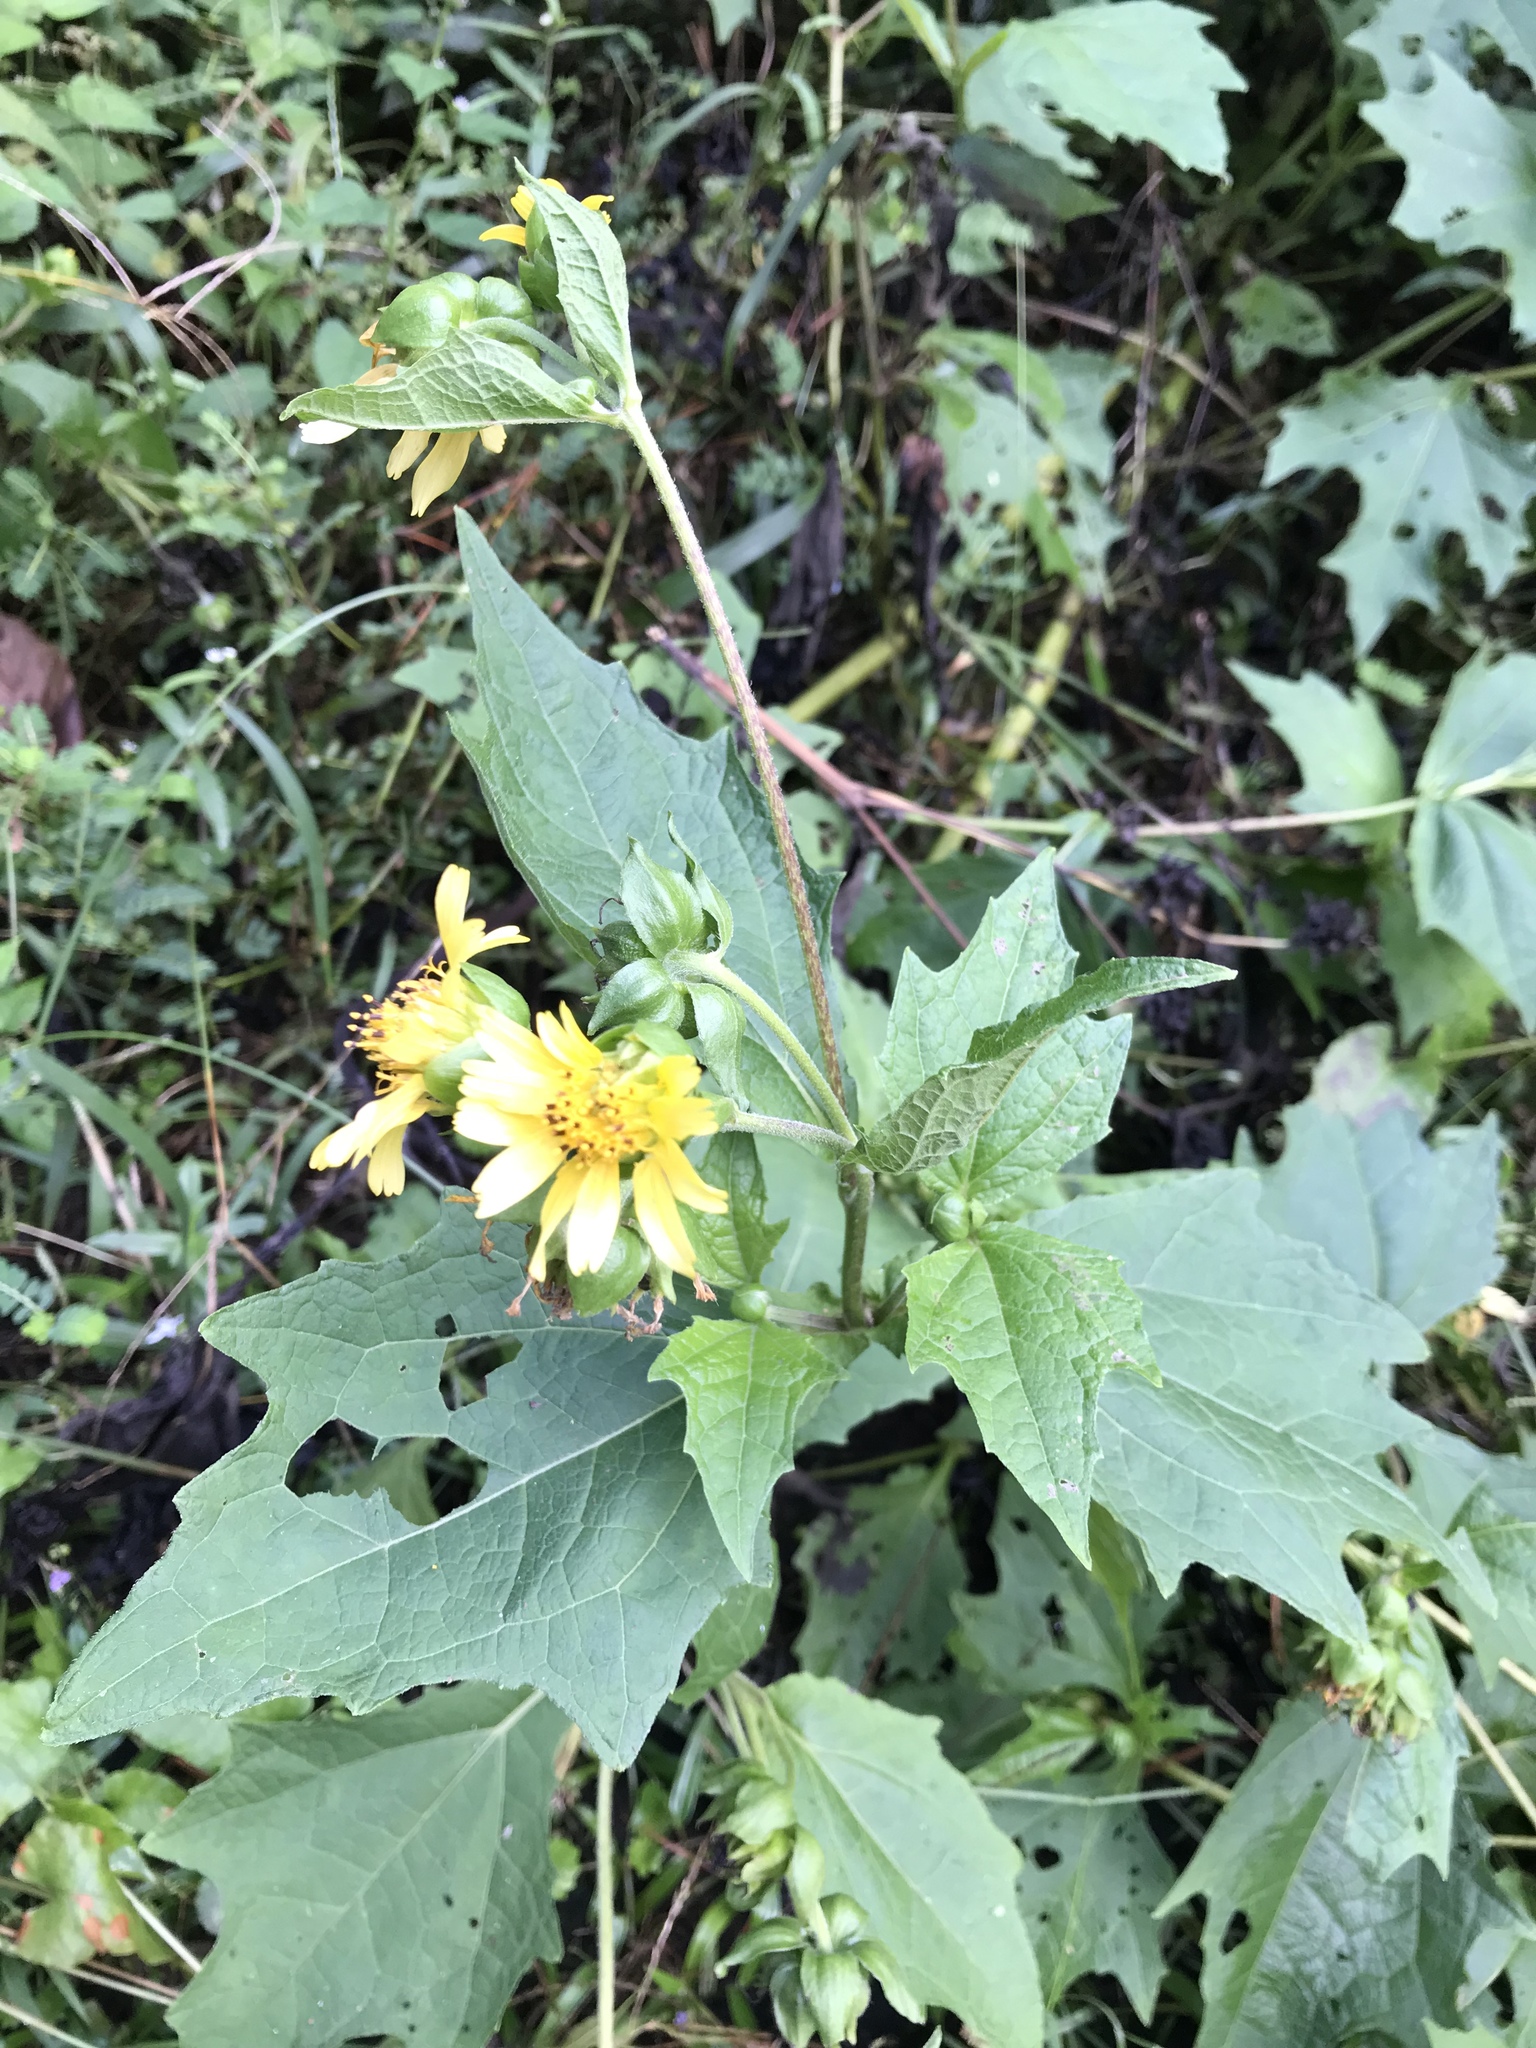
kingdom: Plantae
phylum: Tracheophyta
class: Magnoliopsida
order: Asterales
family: Asteraceae
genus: Smallanthus
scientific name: Smallanthus uvedalia
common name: Bear's-foot
